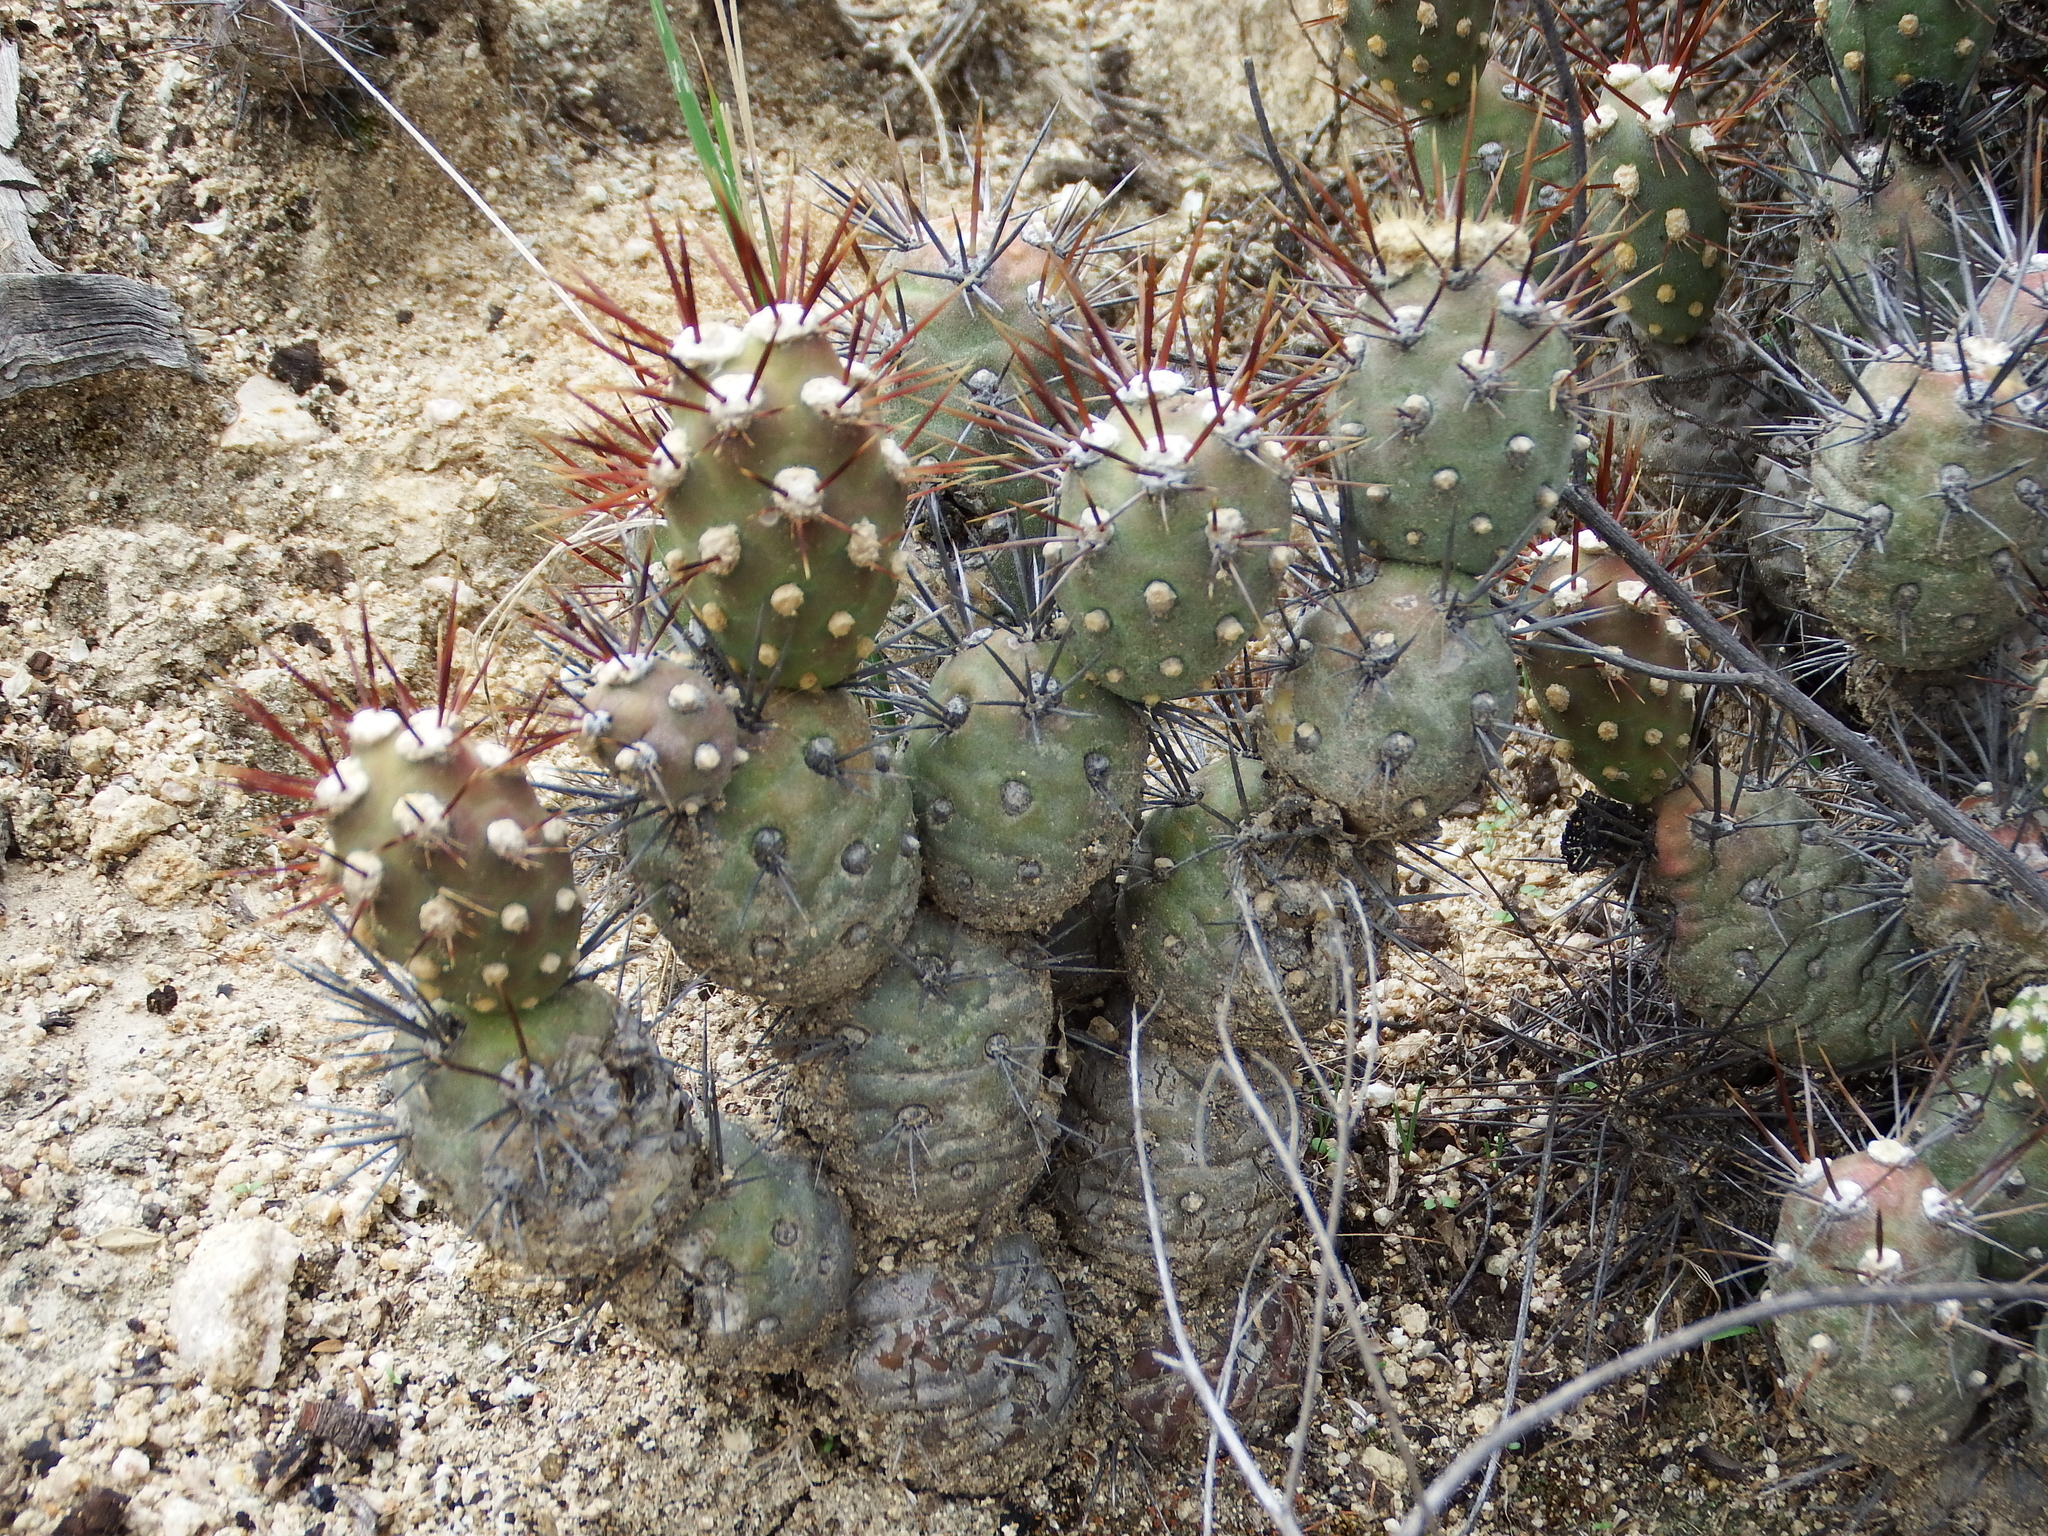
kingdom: Plantae
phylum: Tracheophyta
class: Magnoliopsida
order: Caryophyllales
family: Cactaceae
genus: Cumulopuntia
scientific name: Cumulopuntia leucophaea
